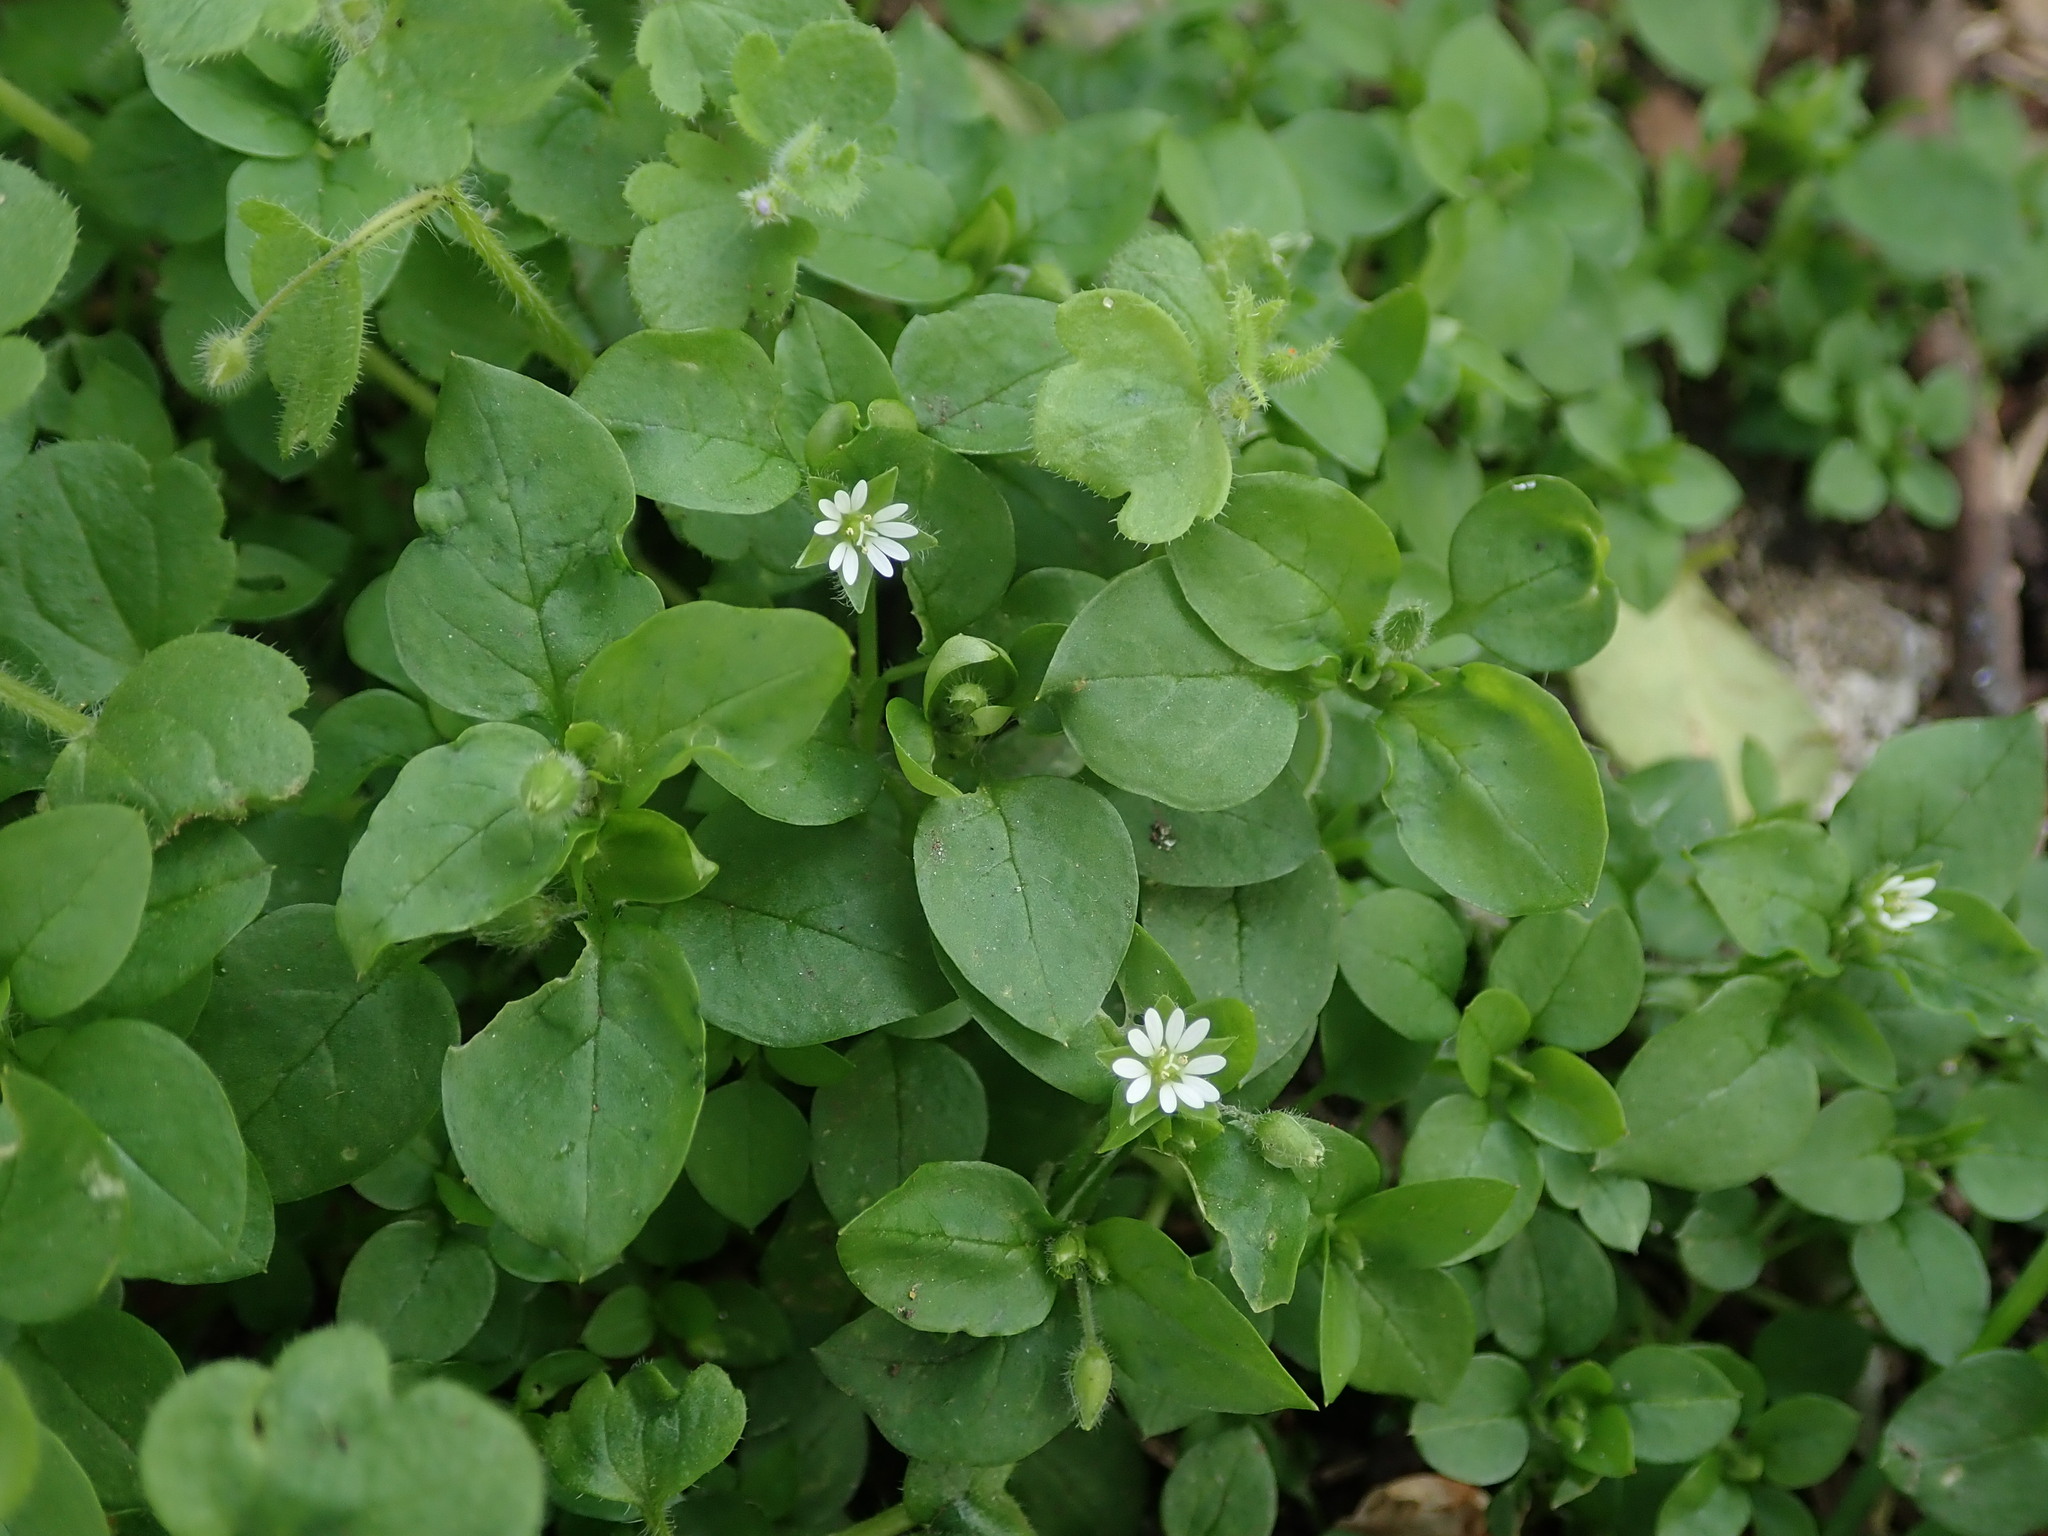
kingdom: Plantae
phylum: Tracheophyta
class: Magnoliopsida
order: Caryophyllales
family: Caryophyllaceae
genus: Stellaria
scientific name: Stellaria media
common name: Common chickweed
